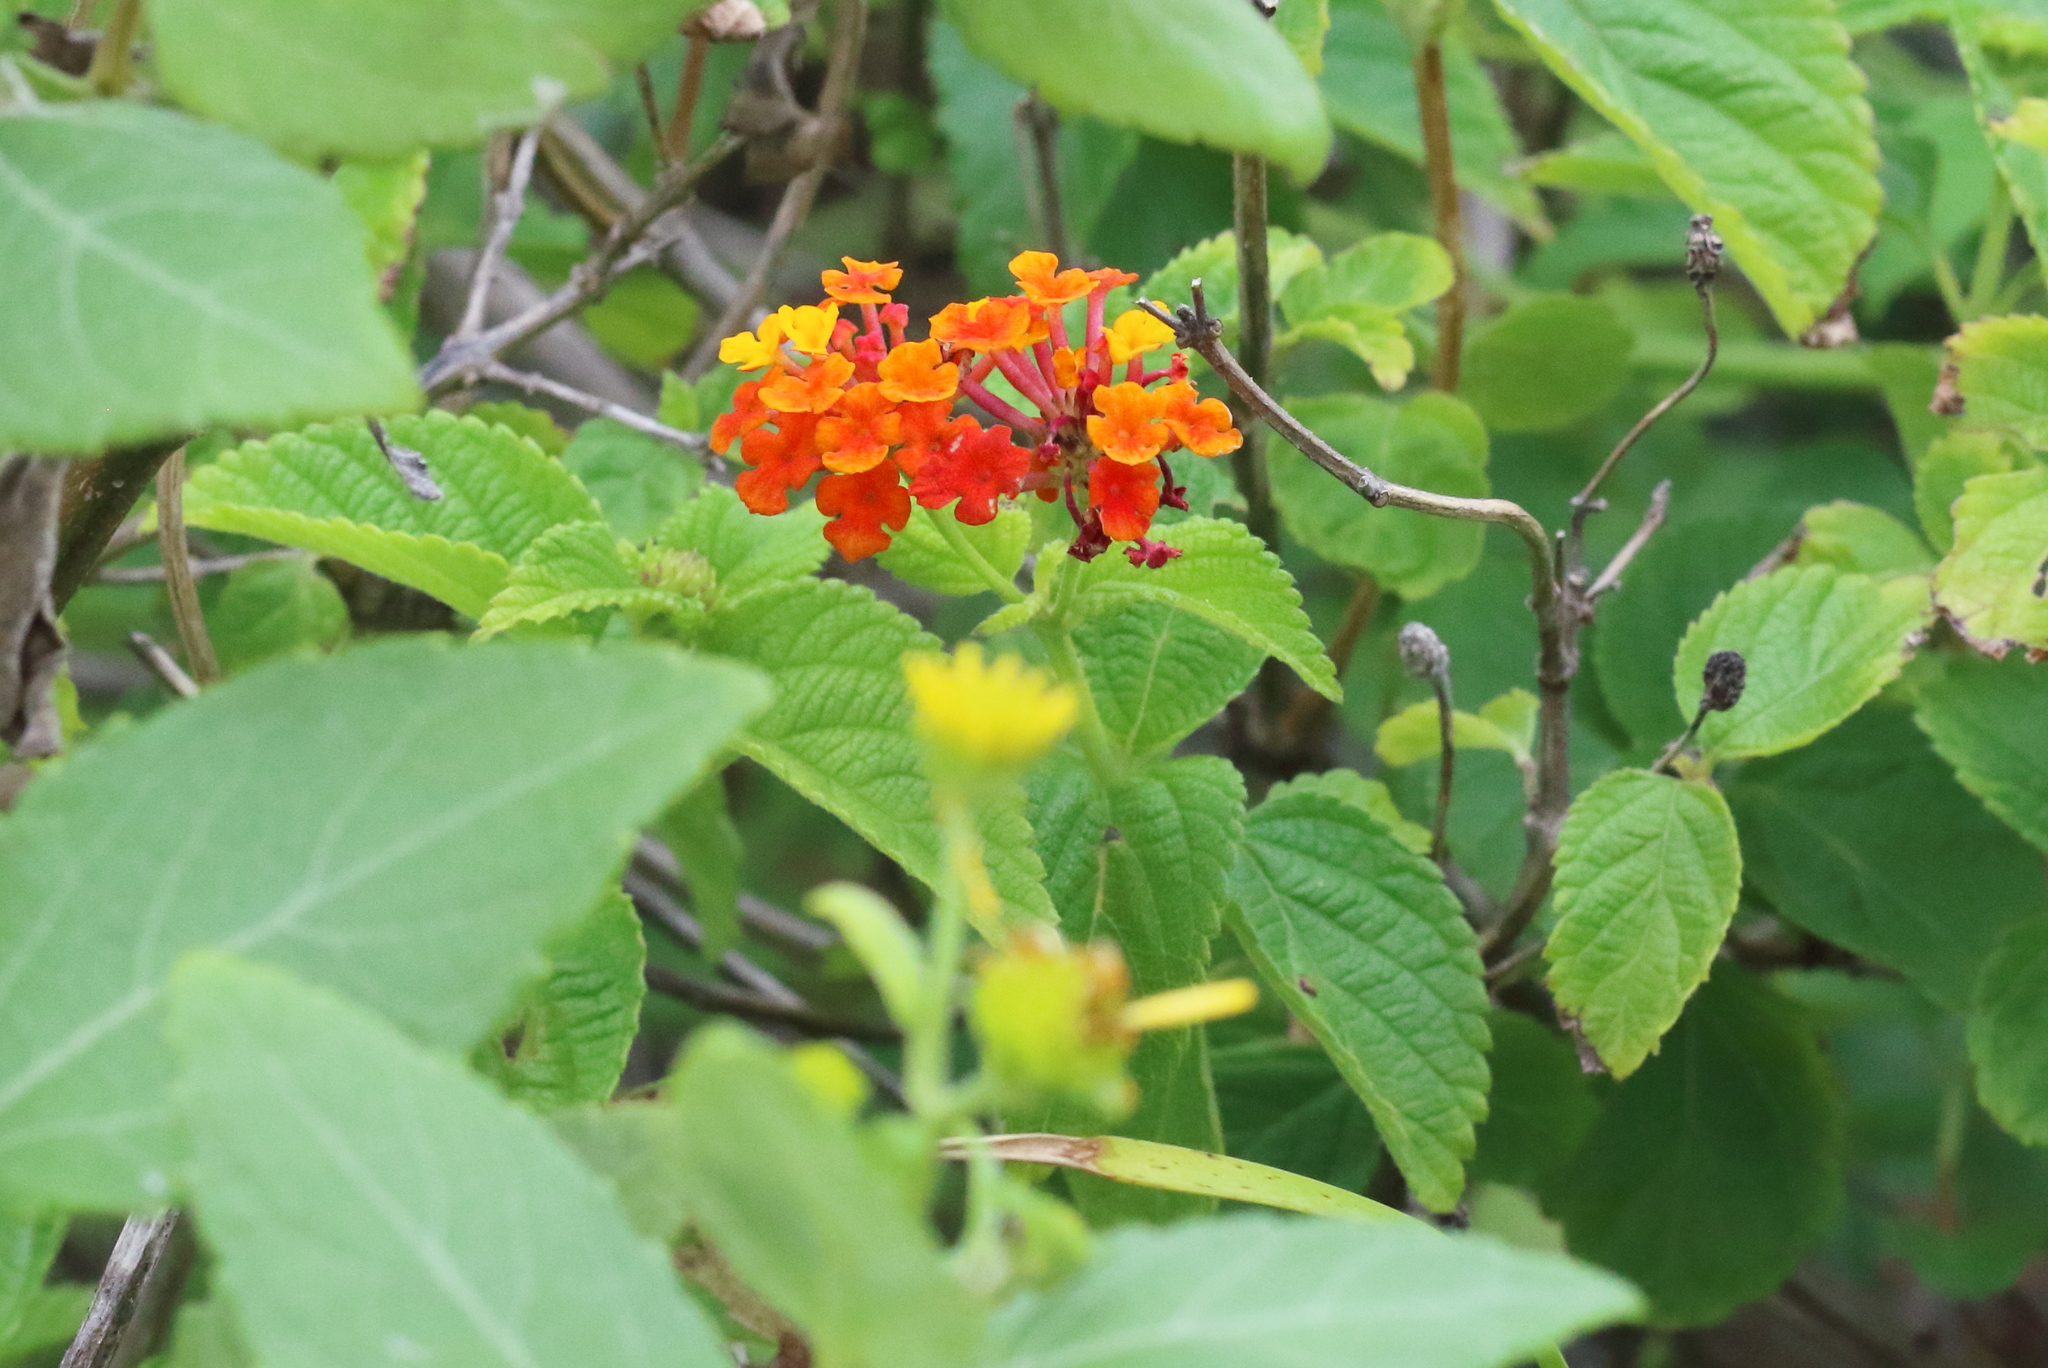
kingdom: Plantae
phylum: Tracheophyta
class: Magnoliopsida
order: Lamiales
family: Verbenaceae
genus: Lantana
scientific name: Lantana camara
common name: Lantana
